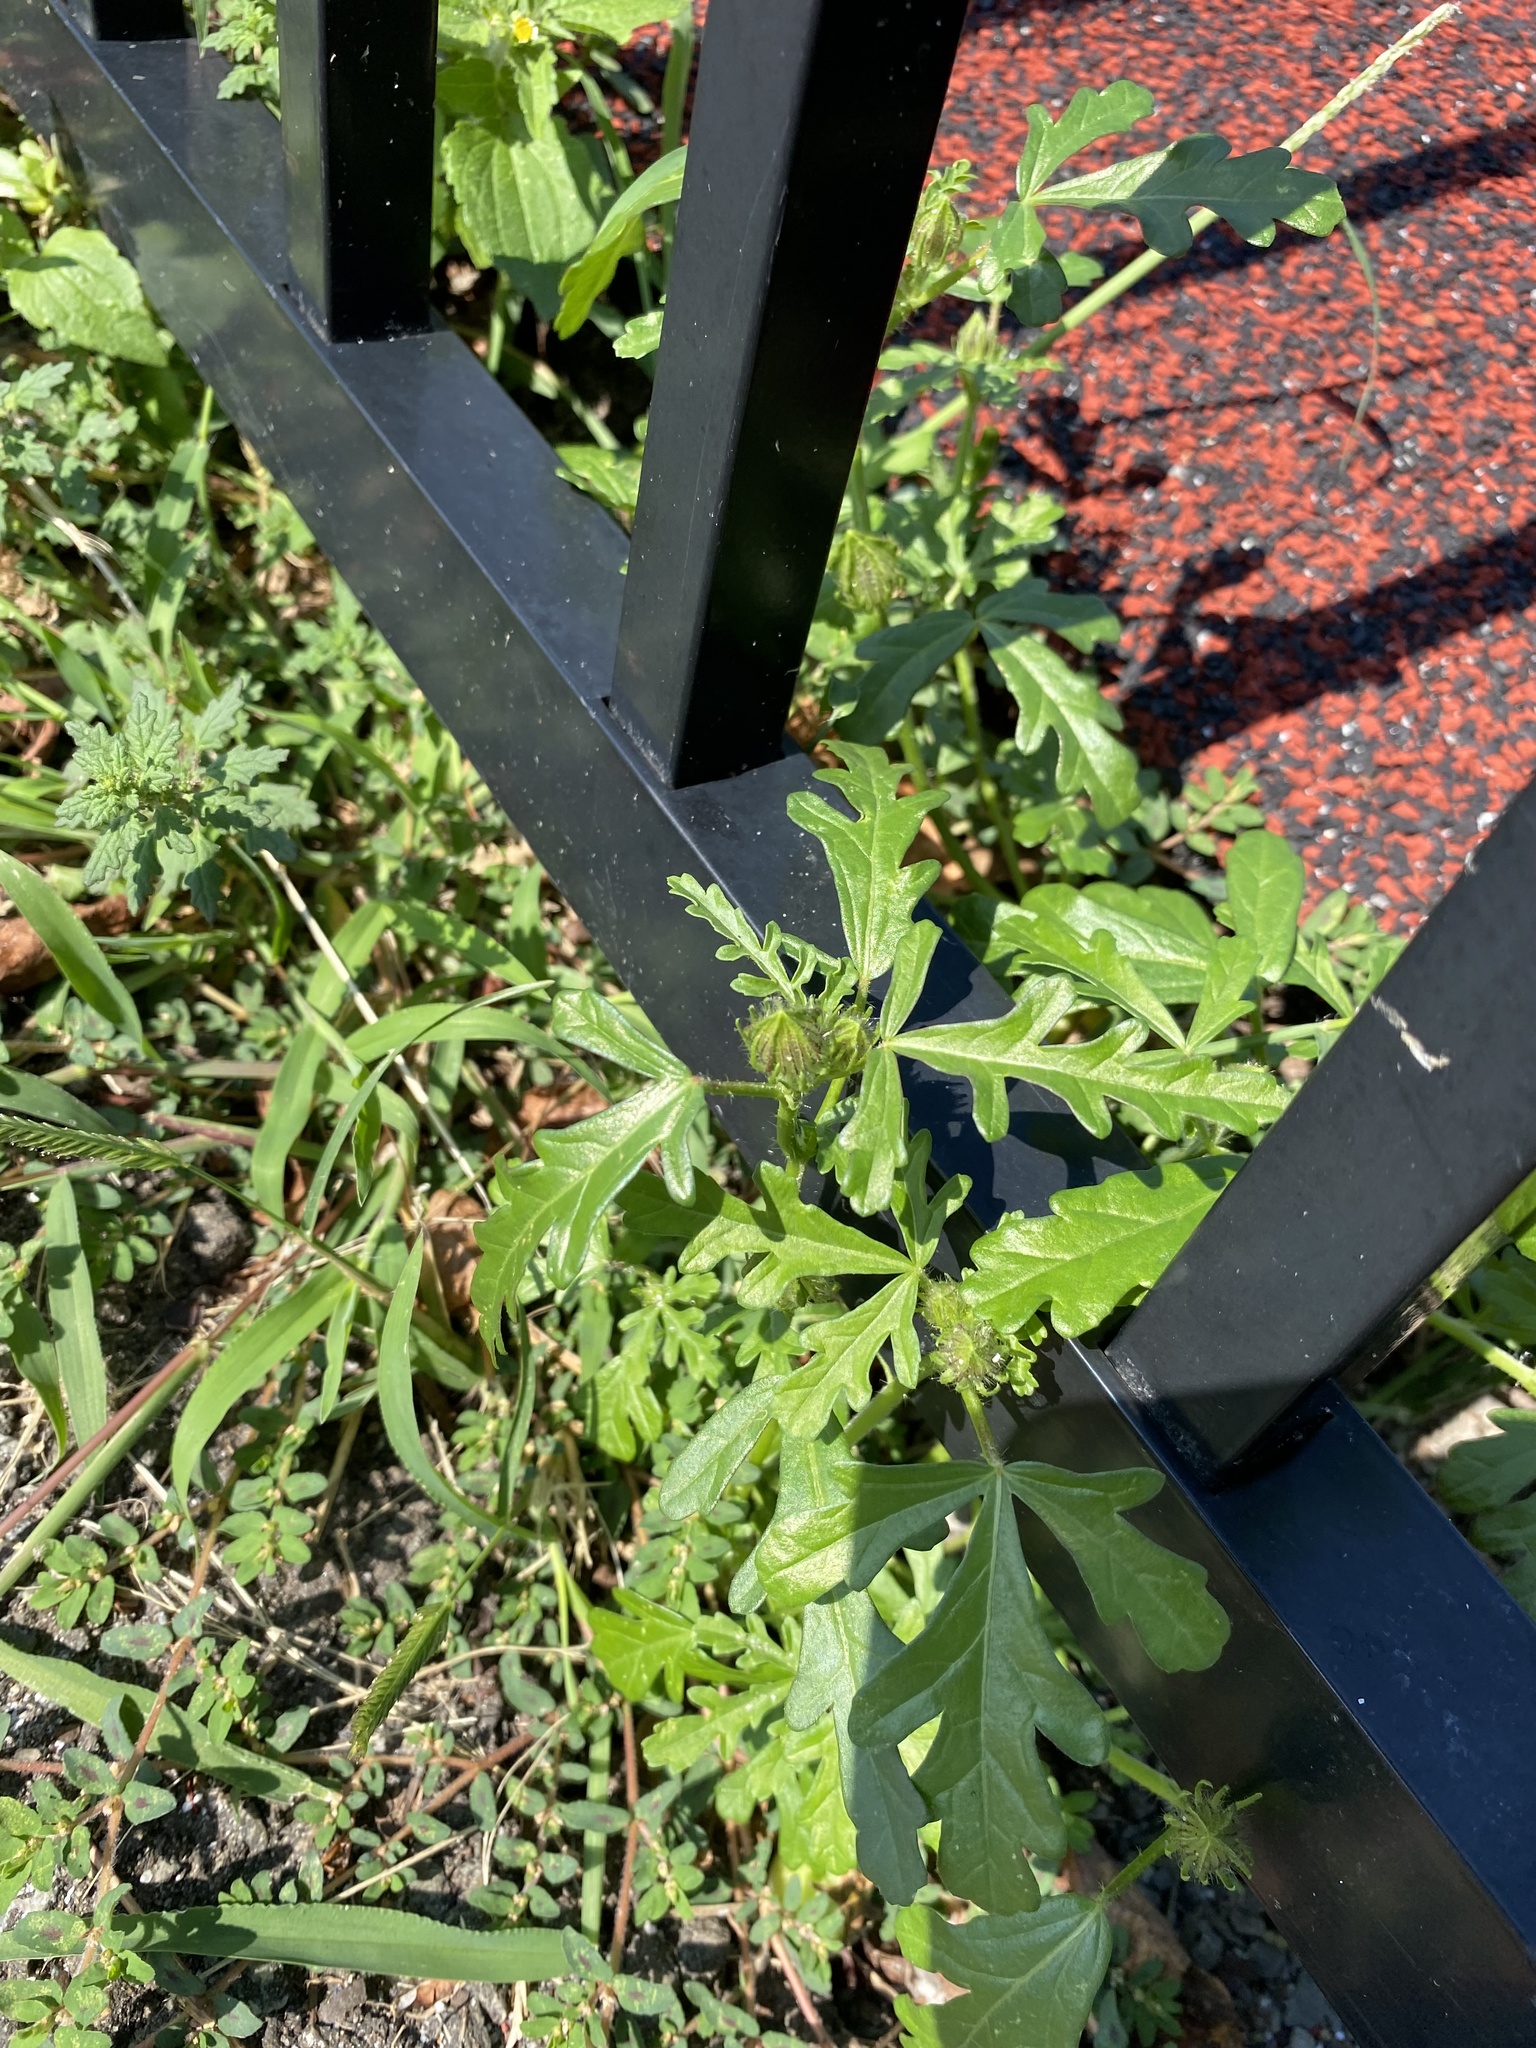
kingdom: Plantae
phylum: Tracheophyta
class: Magnoliopsida
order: Malvales
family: Malvaceae
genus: Hibiscus
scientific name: Hibiscus trionum
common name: Bladder ketmia
